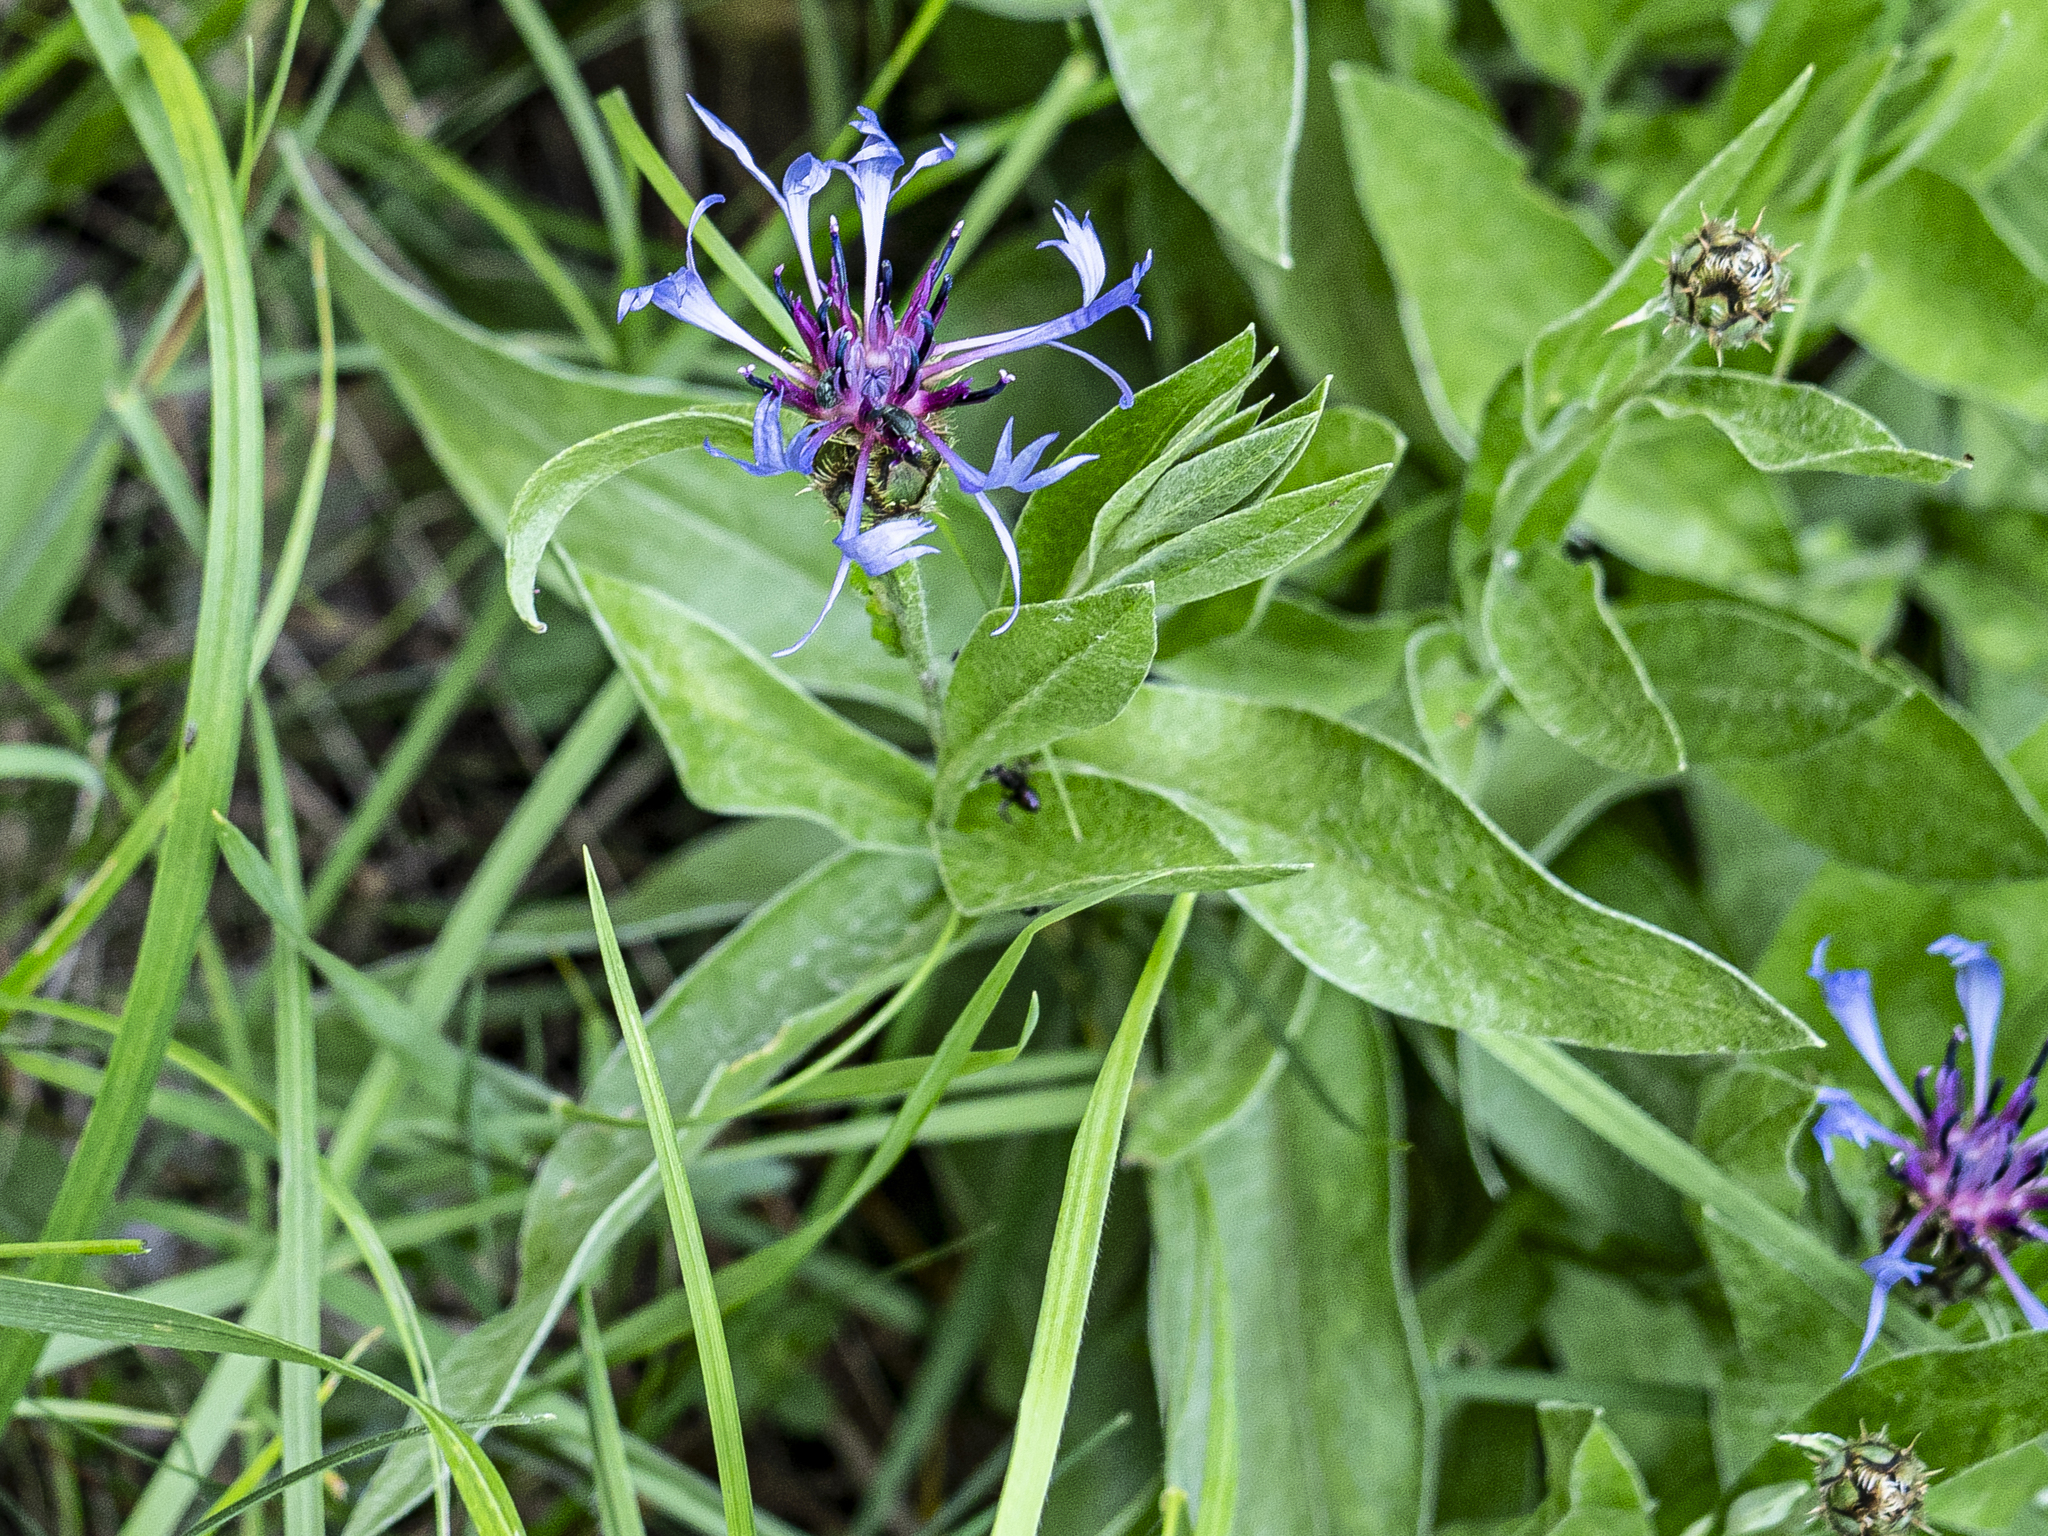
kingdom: Plantae
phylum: Tracheophyta
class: Magnoliopsida
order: Asterales
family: Asteraceae
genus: Centaurea
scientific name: Centaurea triumfettii
